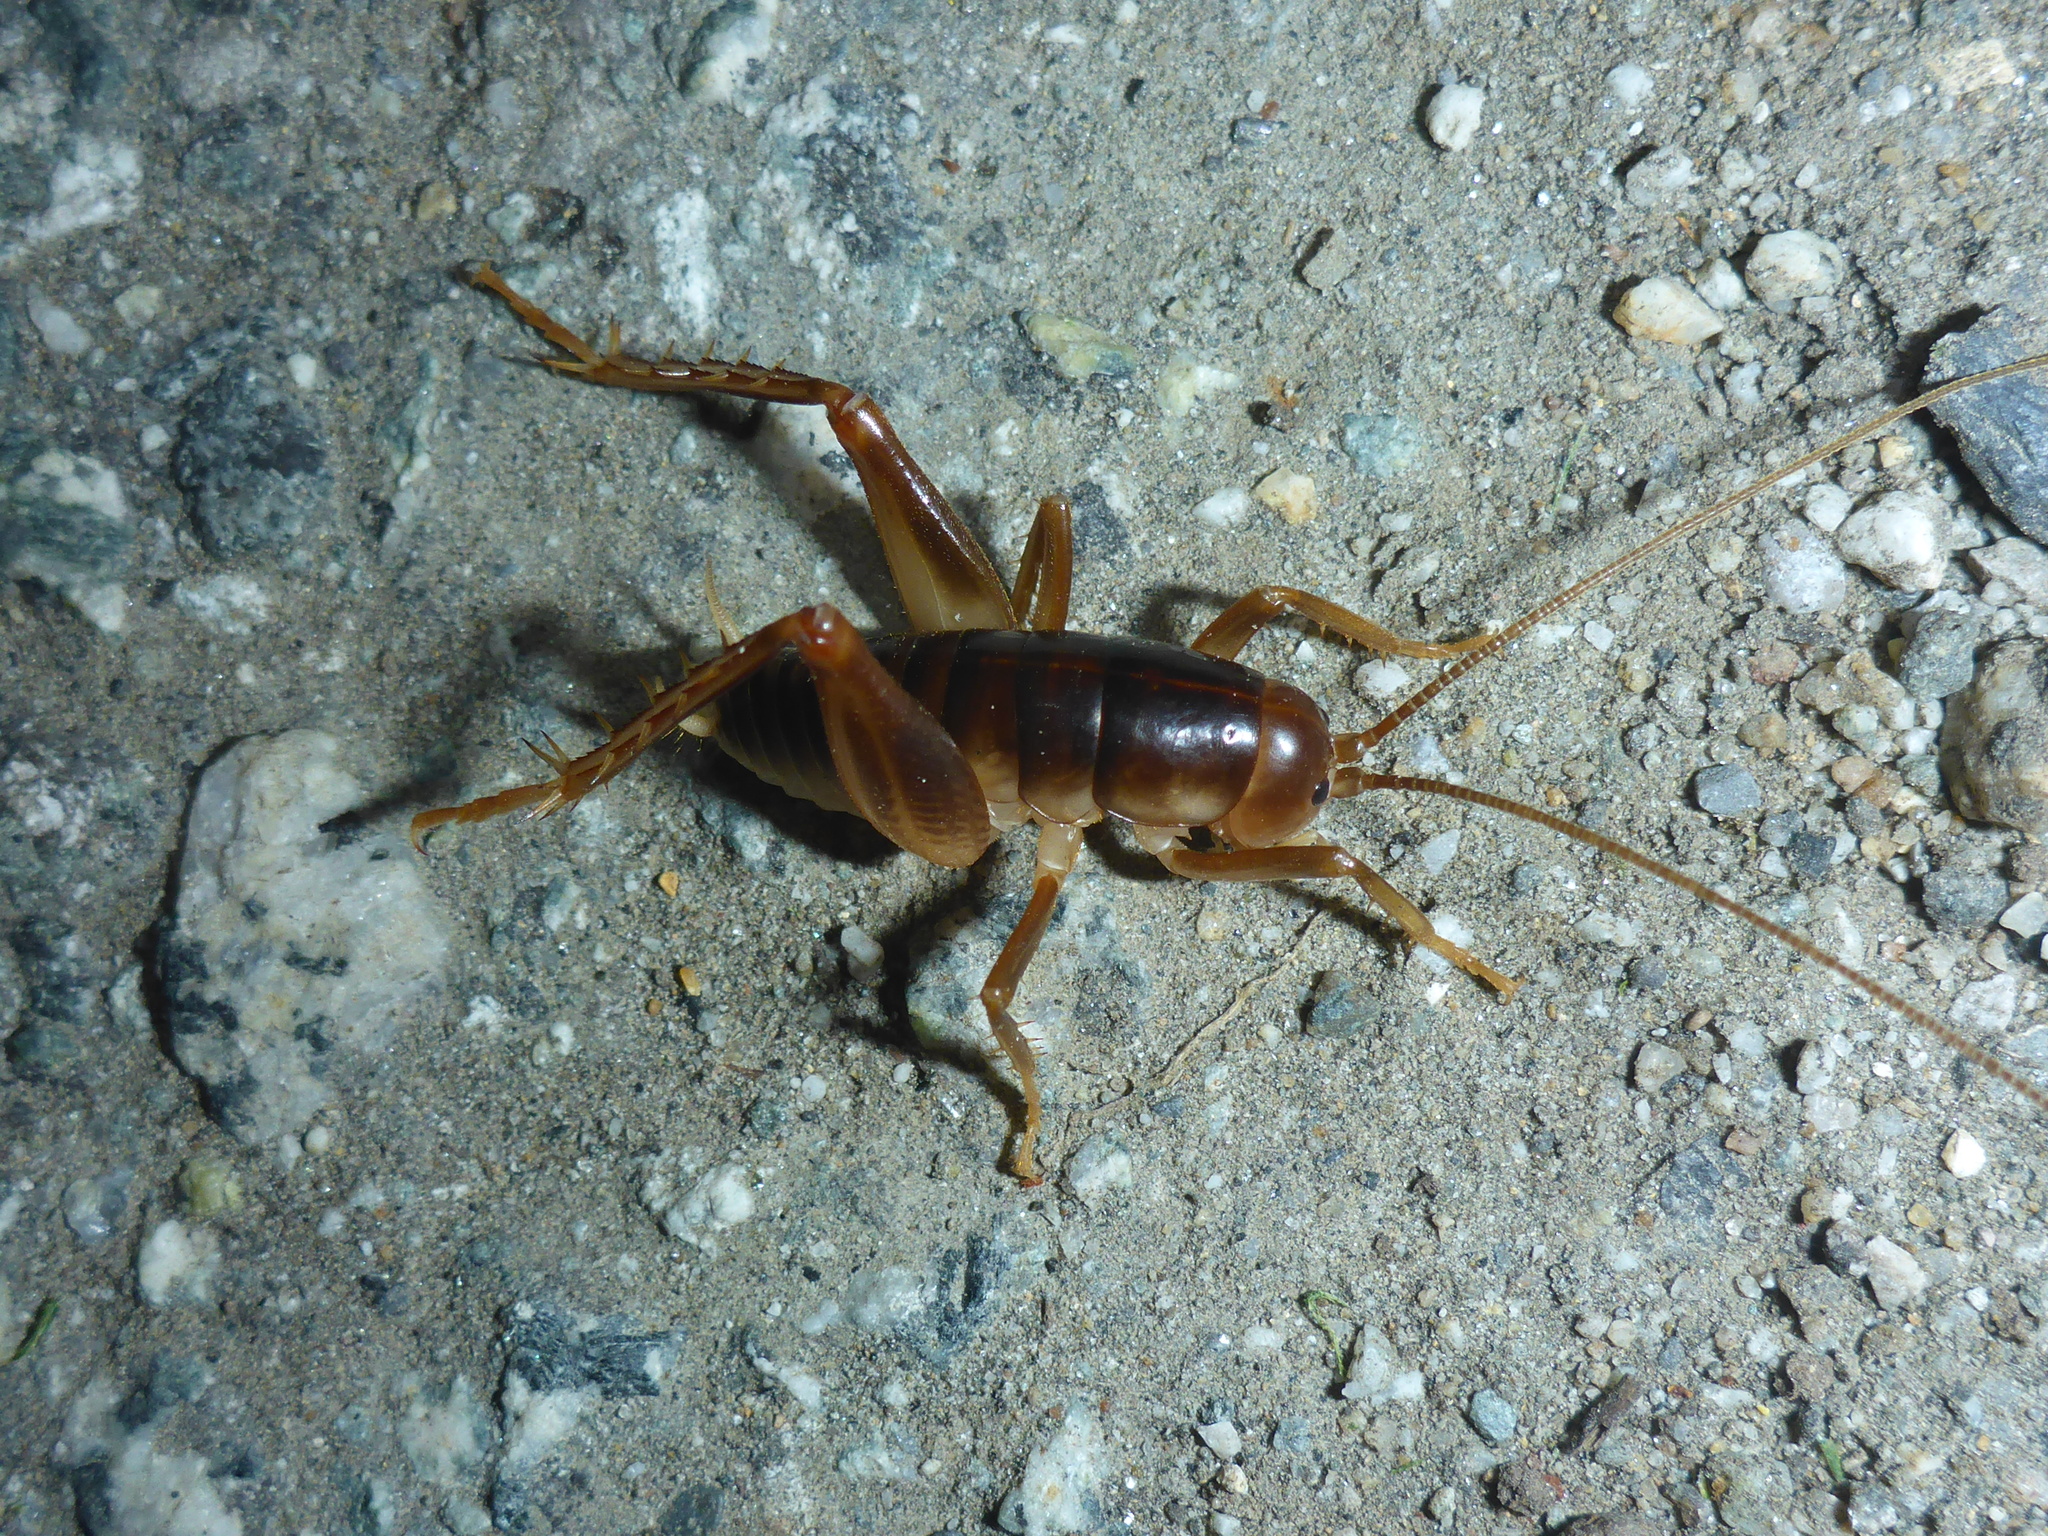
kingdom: Animalia
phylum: Arthropoda
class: Insecta
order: Orthoptera
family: Rhaphidophoridae
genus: Ceuthophilus
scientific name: Ceuthophilus californianus
